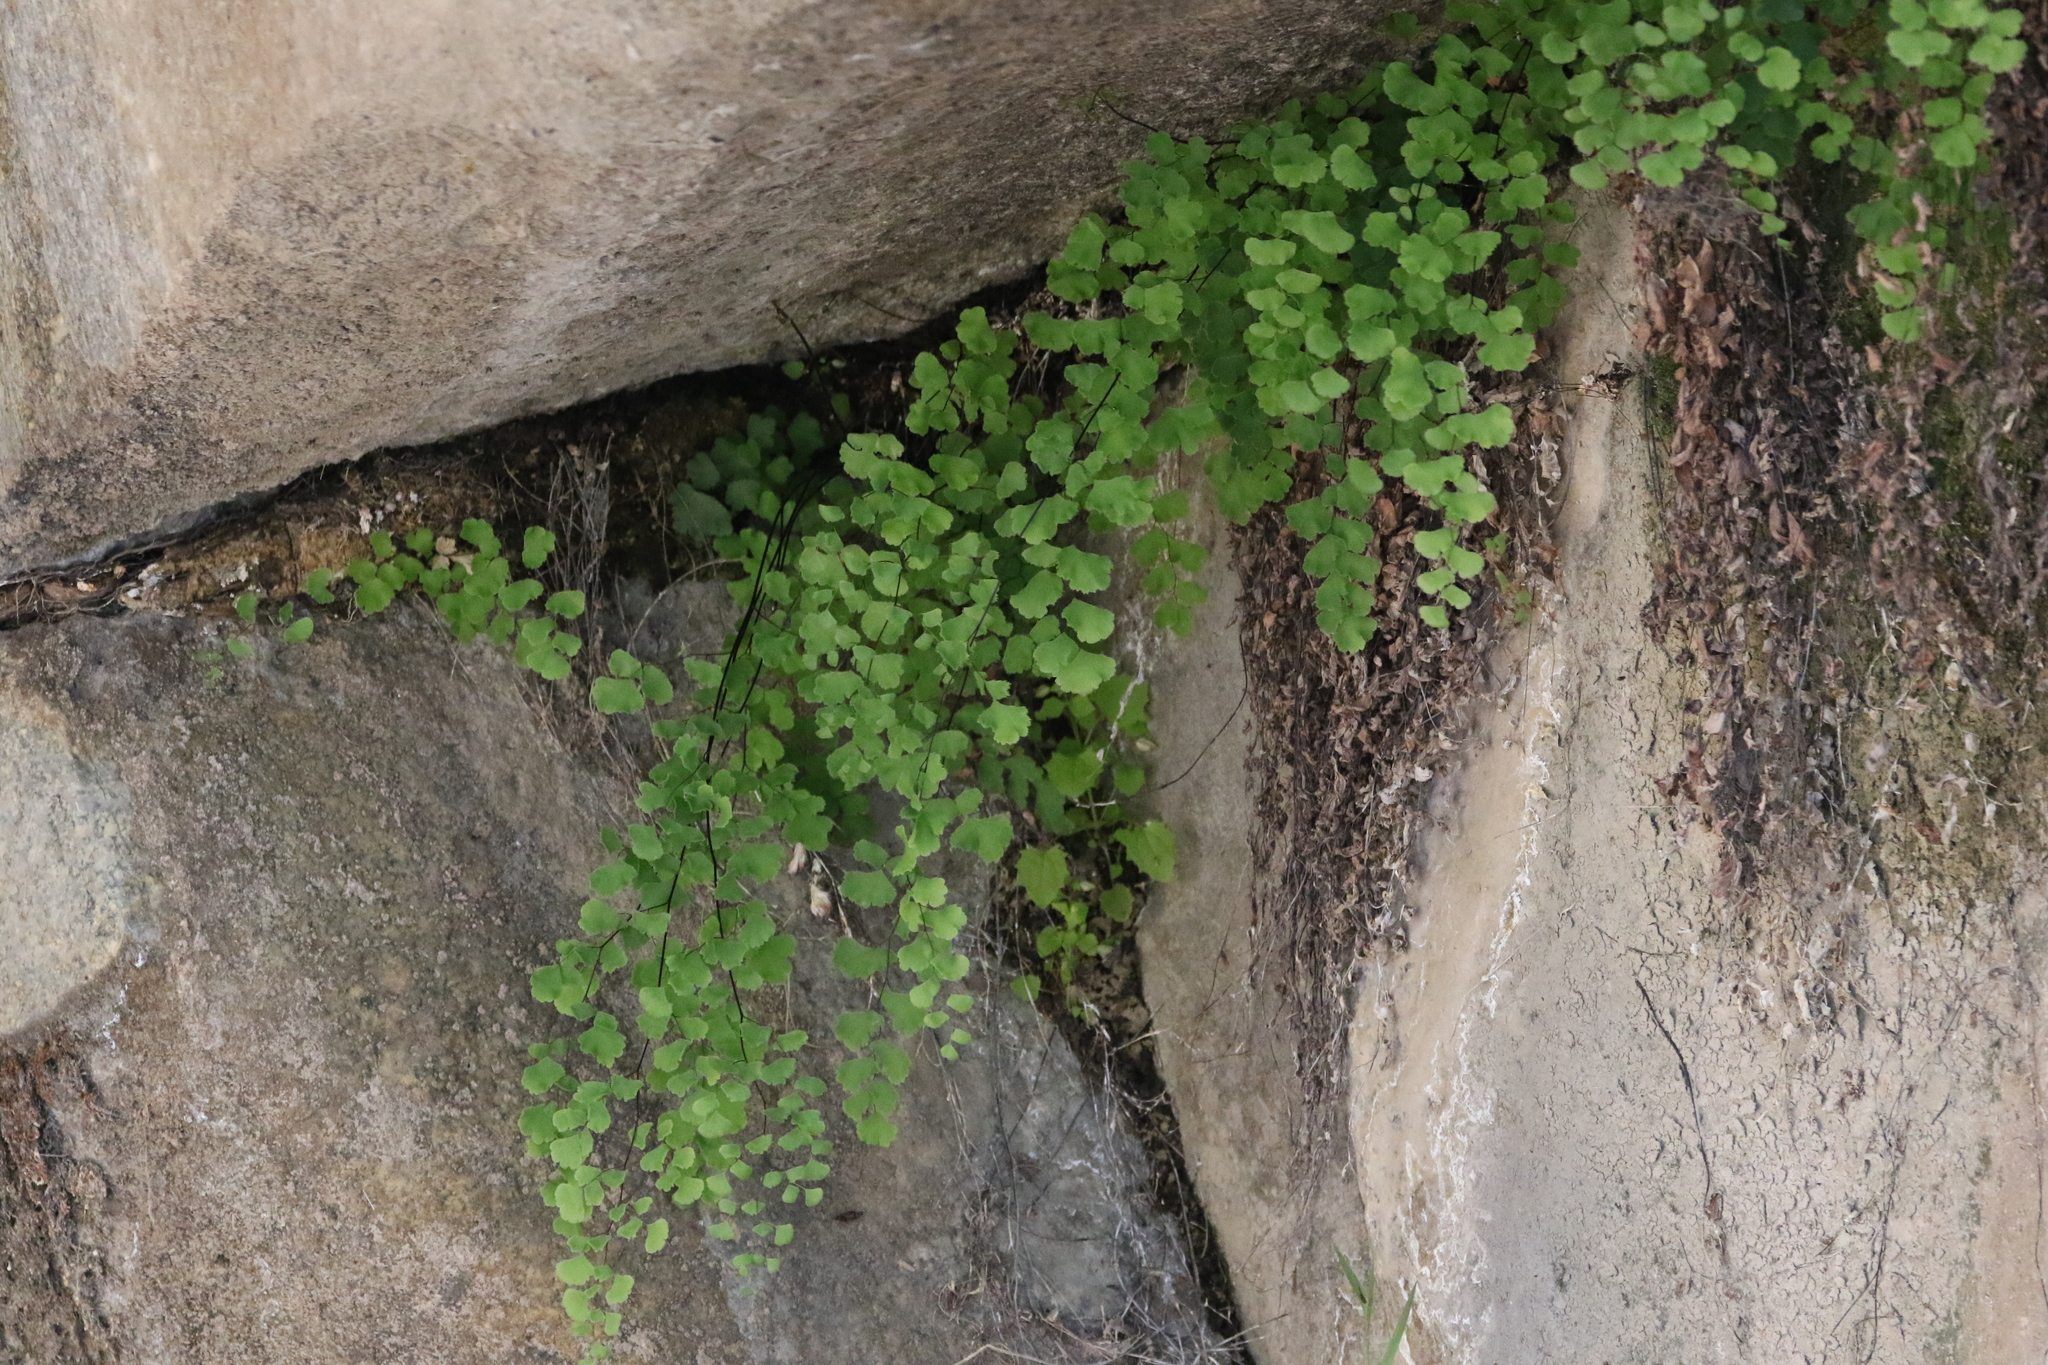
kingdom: Plantae
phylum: Tracheophyta
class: Polypodiopsida
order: Polypodiales
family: Pteridaceae
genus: Adiantum
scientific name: Adiantum capillus-veneris
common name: Maidenhair fern
